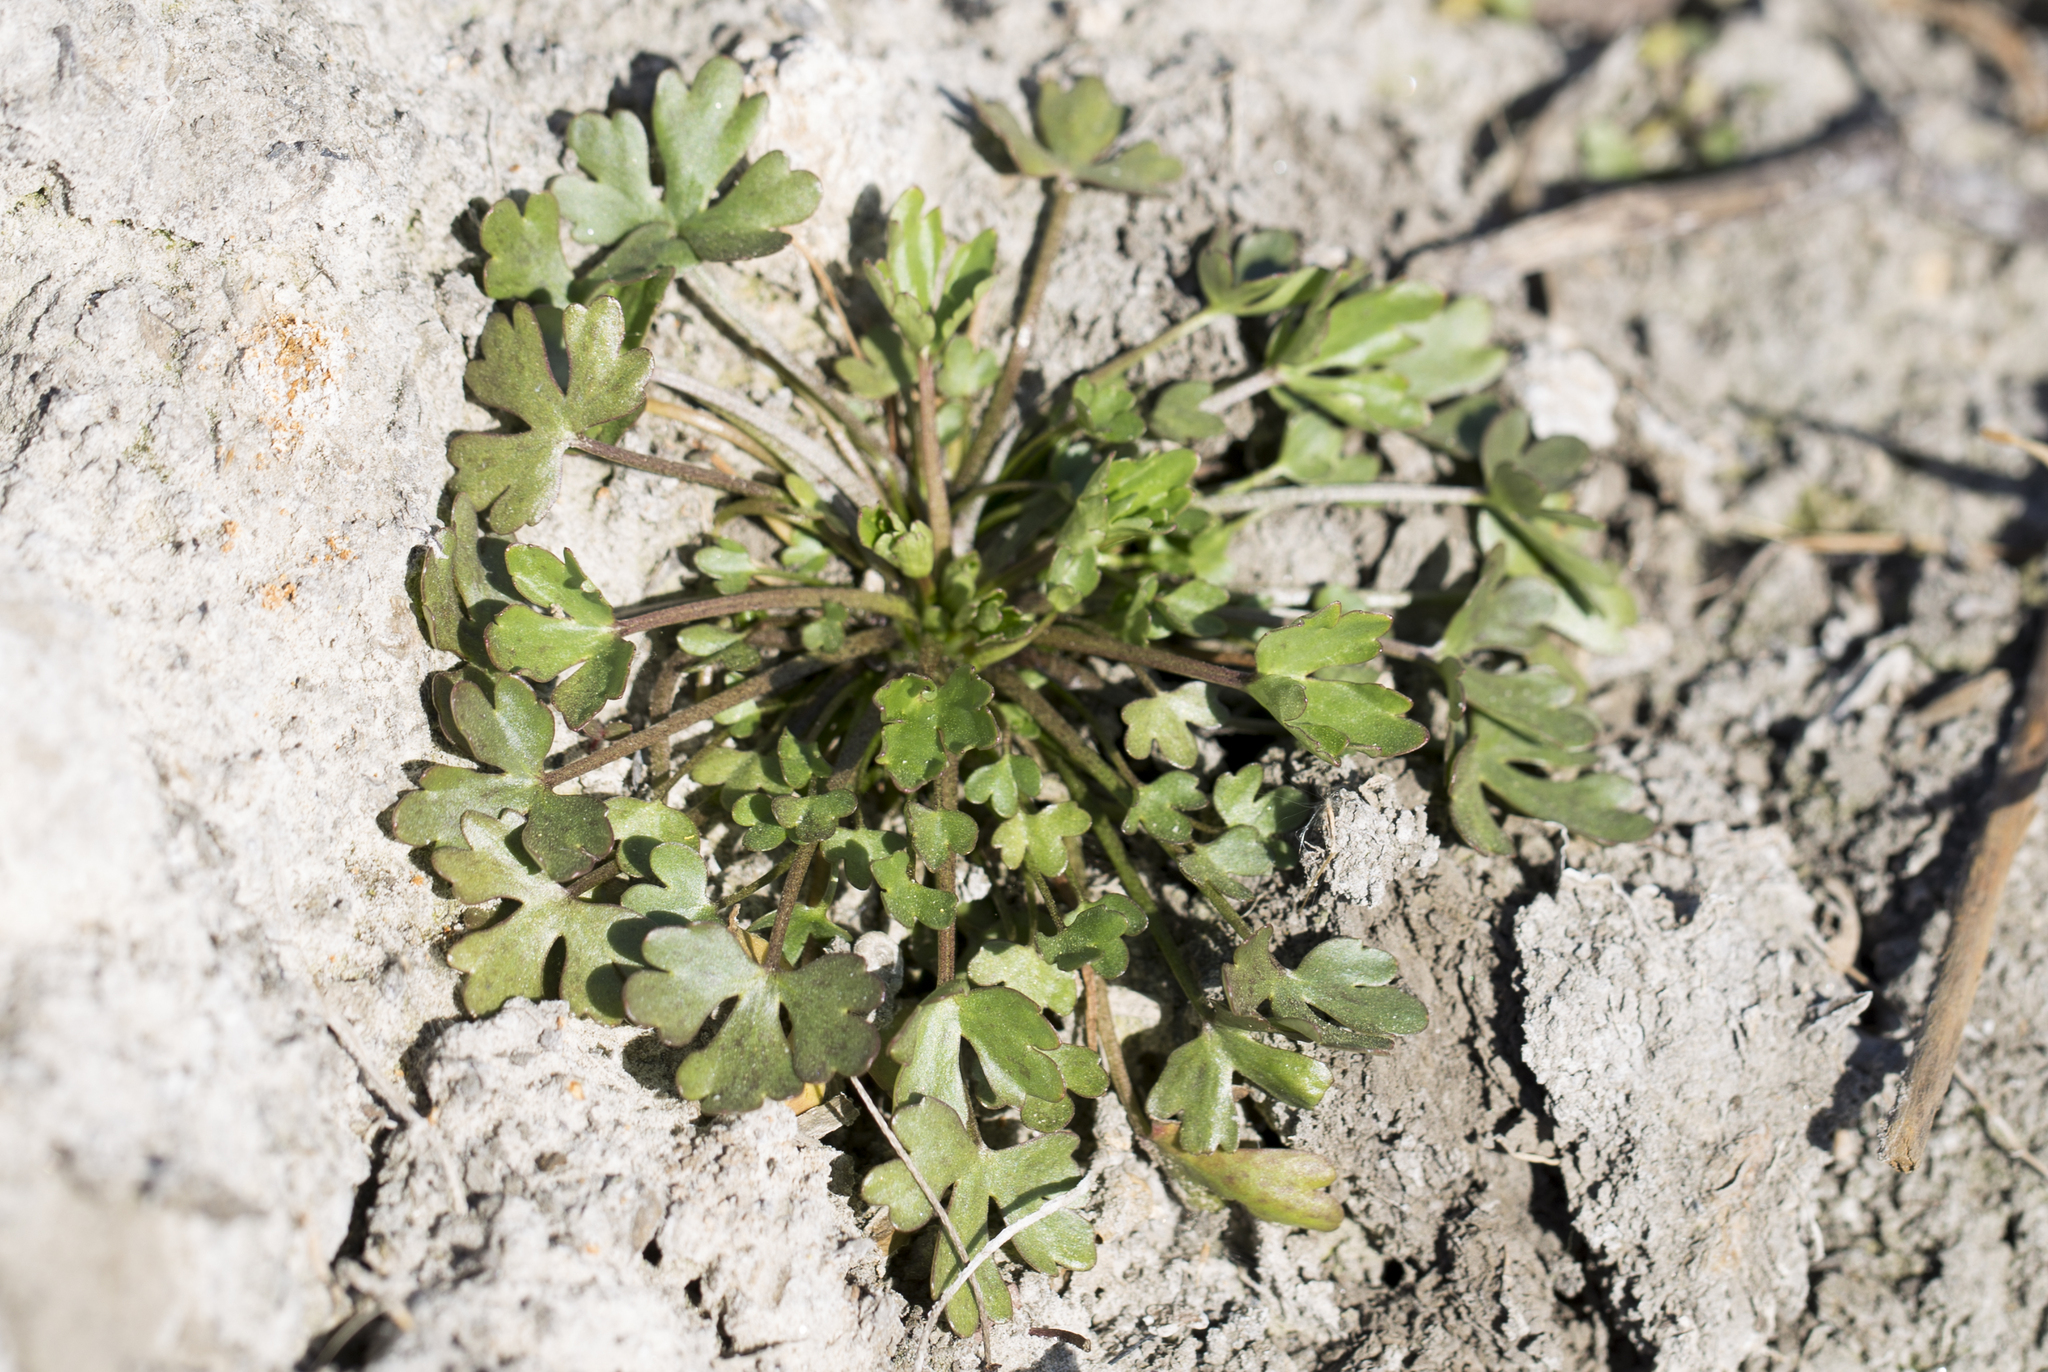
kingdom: Plantae
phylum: Tracheophyta
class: Magnoliopsida
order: Ranunculales
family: Ranunculaceae
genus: Ranunculus
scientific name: Ranunculus sceleratus
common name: Celery-leaved buttercup
